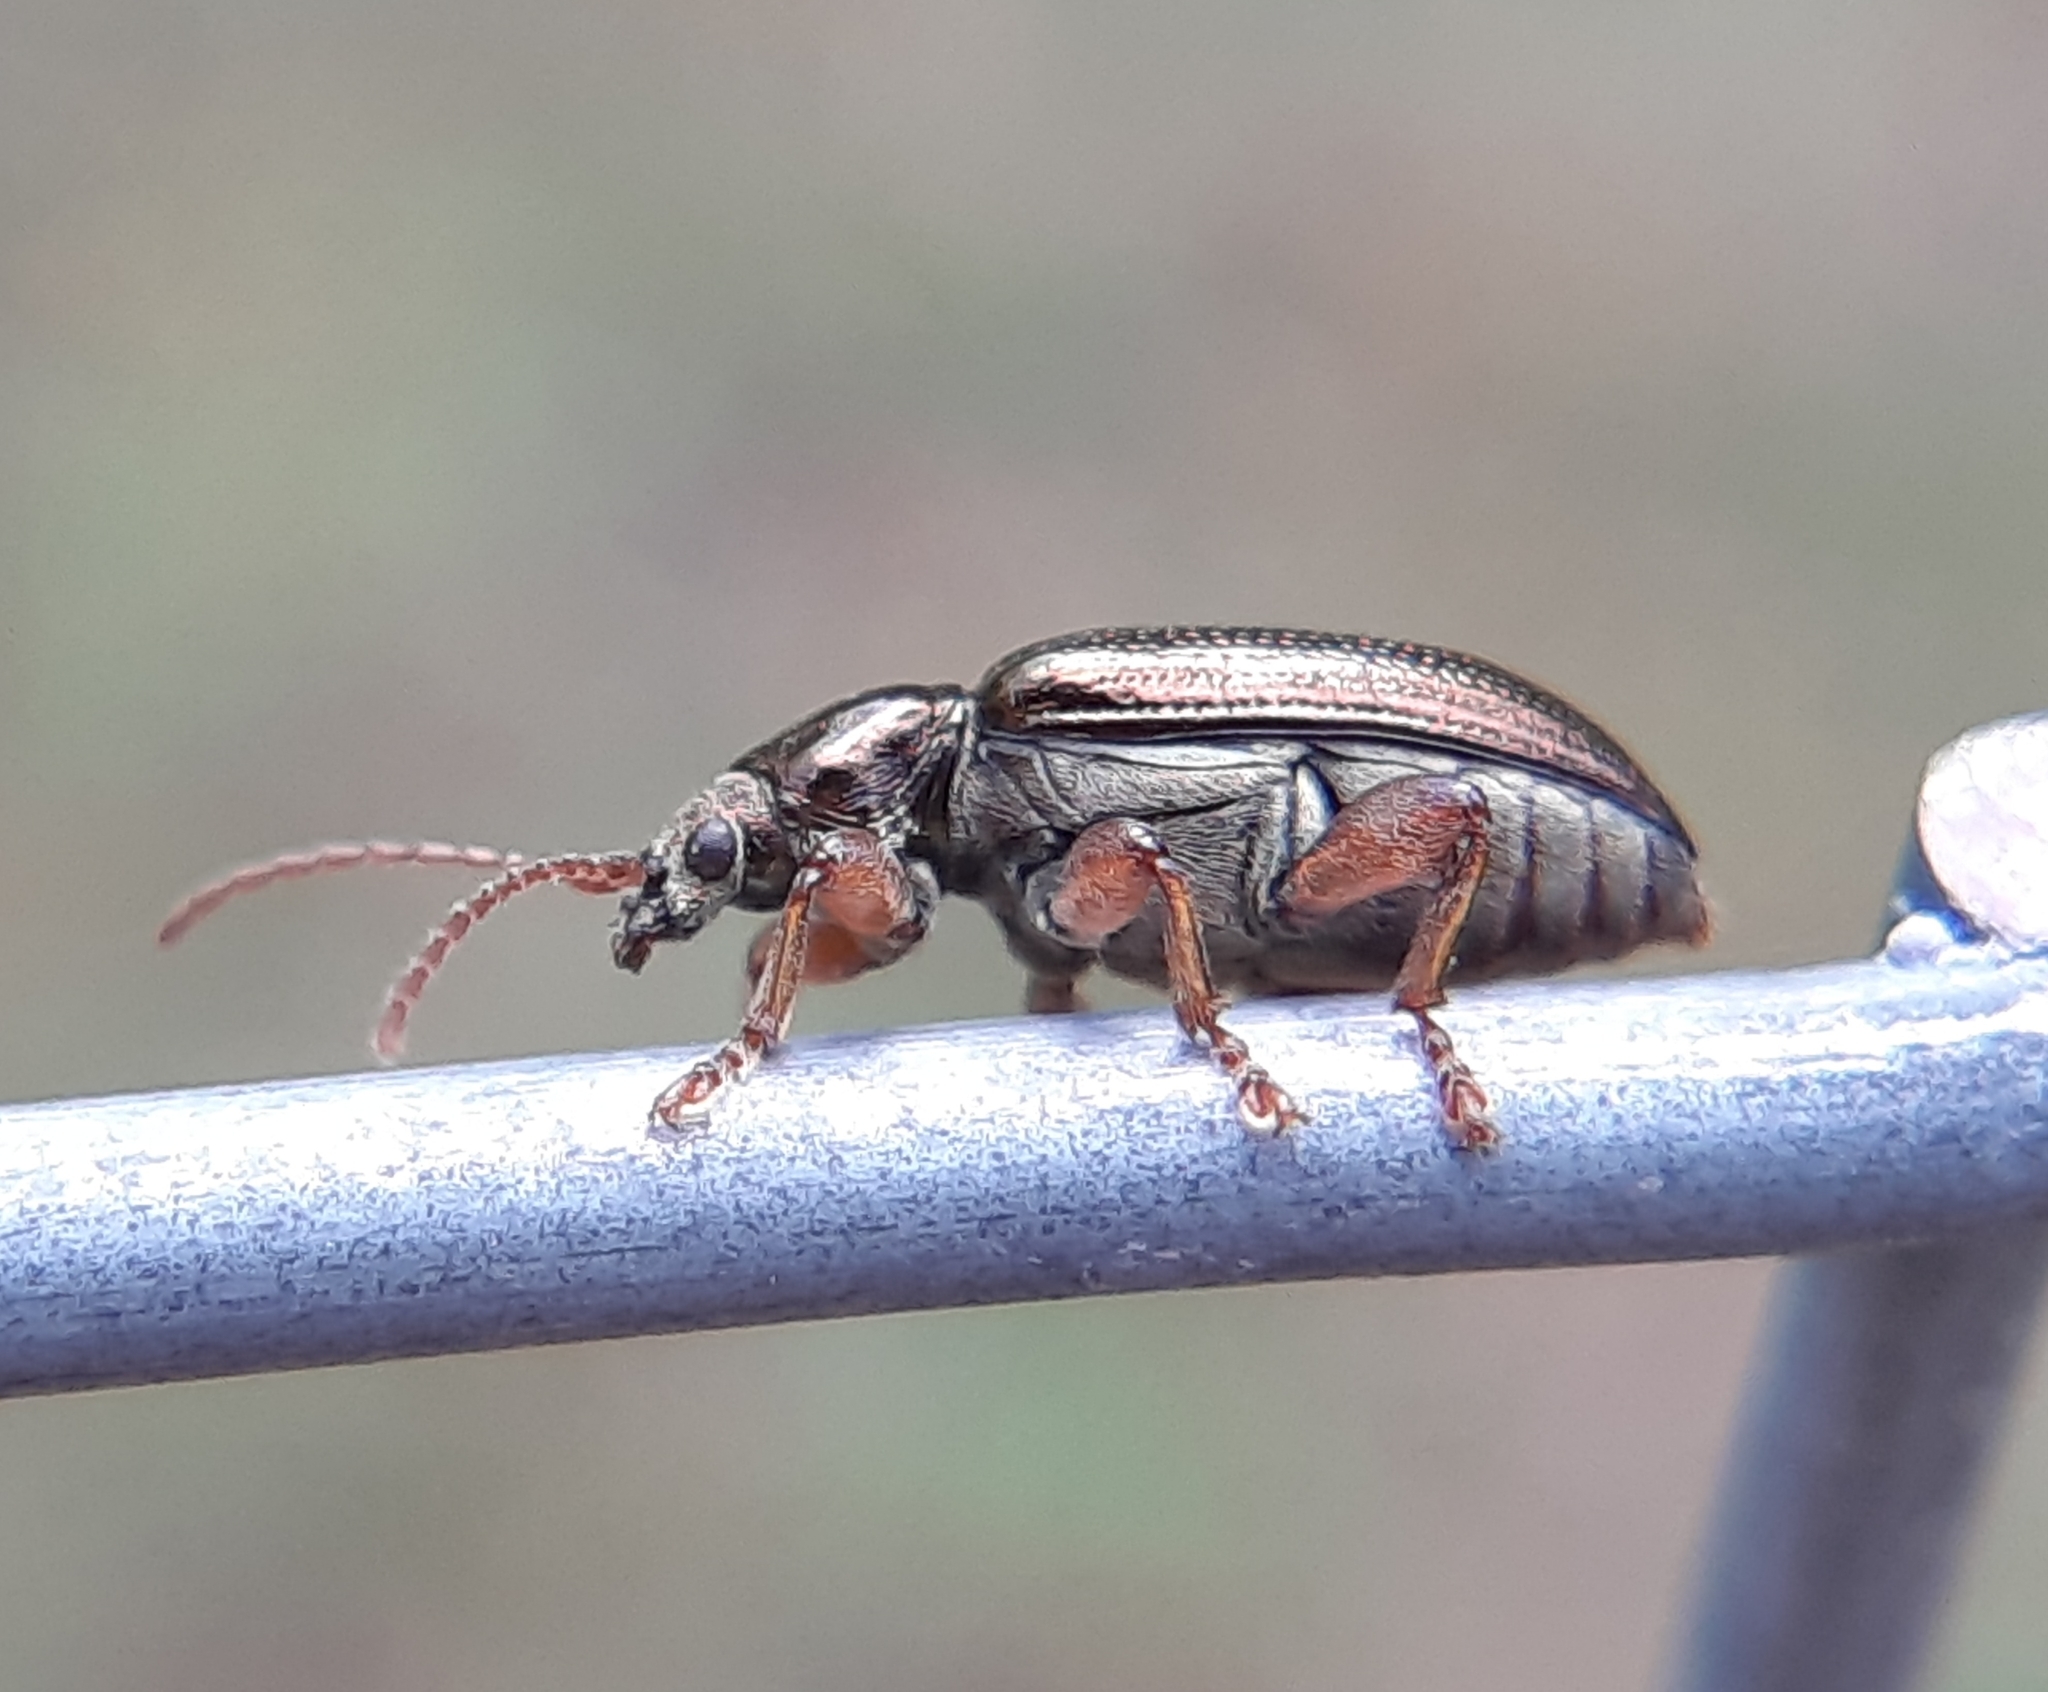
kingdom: Animalia
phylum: Arthropoda
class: Insecta
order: Coleoptera
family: Chrysomelidae
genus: Plateumaris
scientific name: Plateumaris rufa
